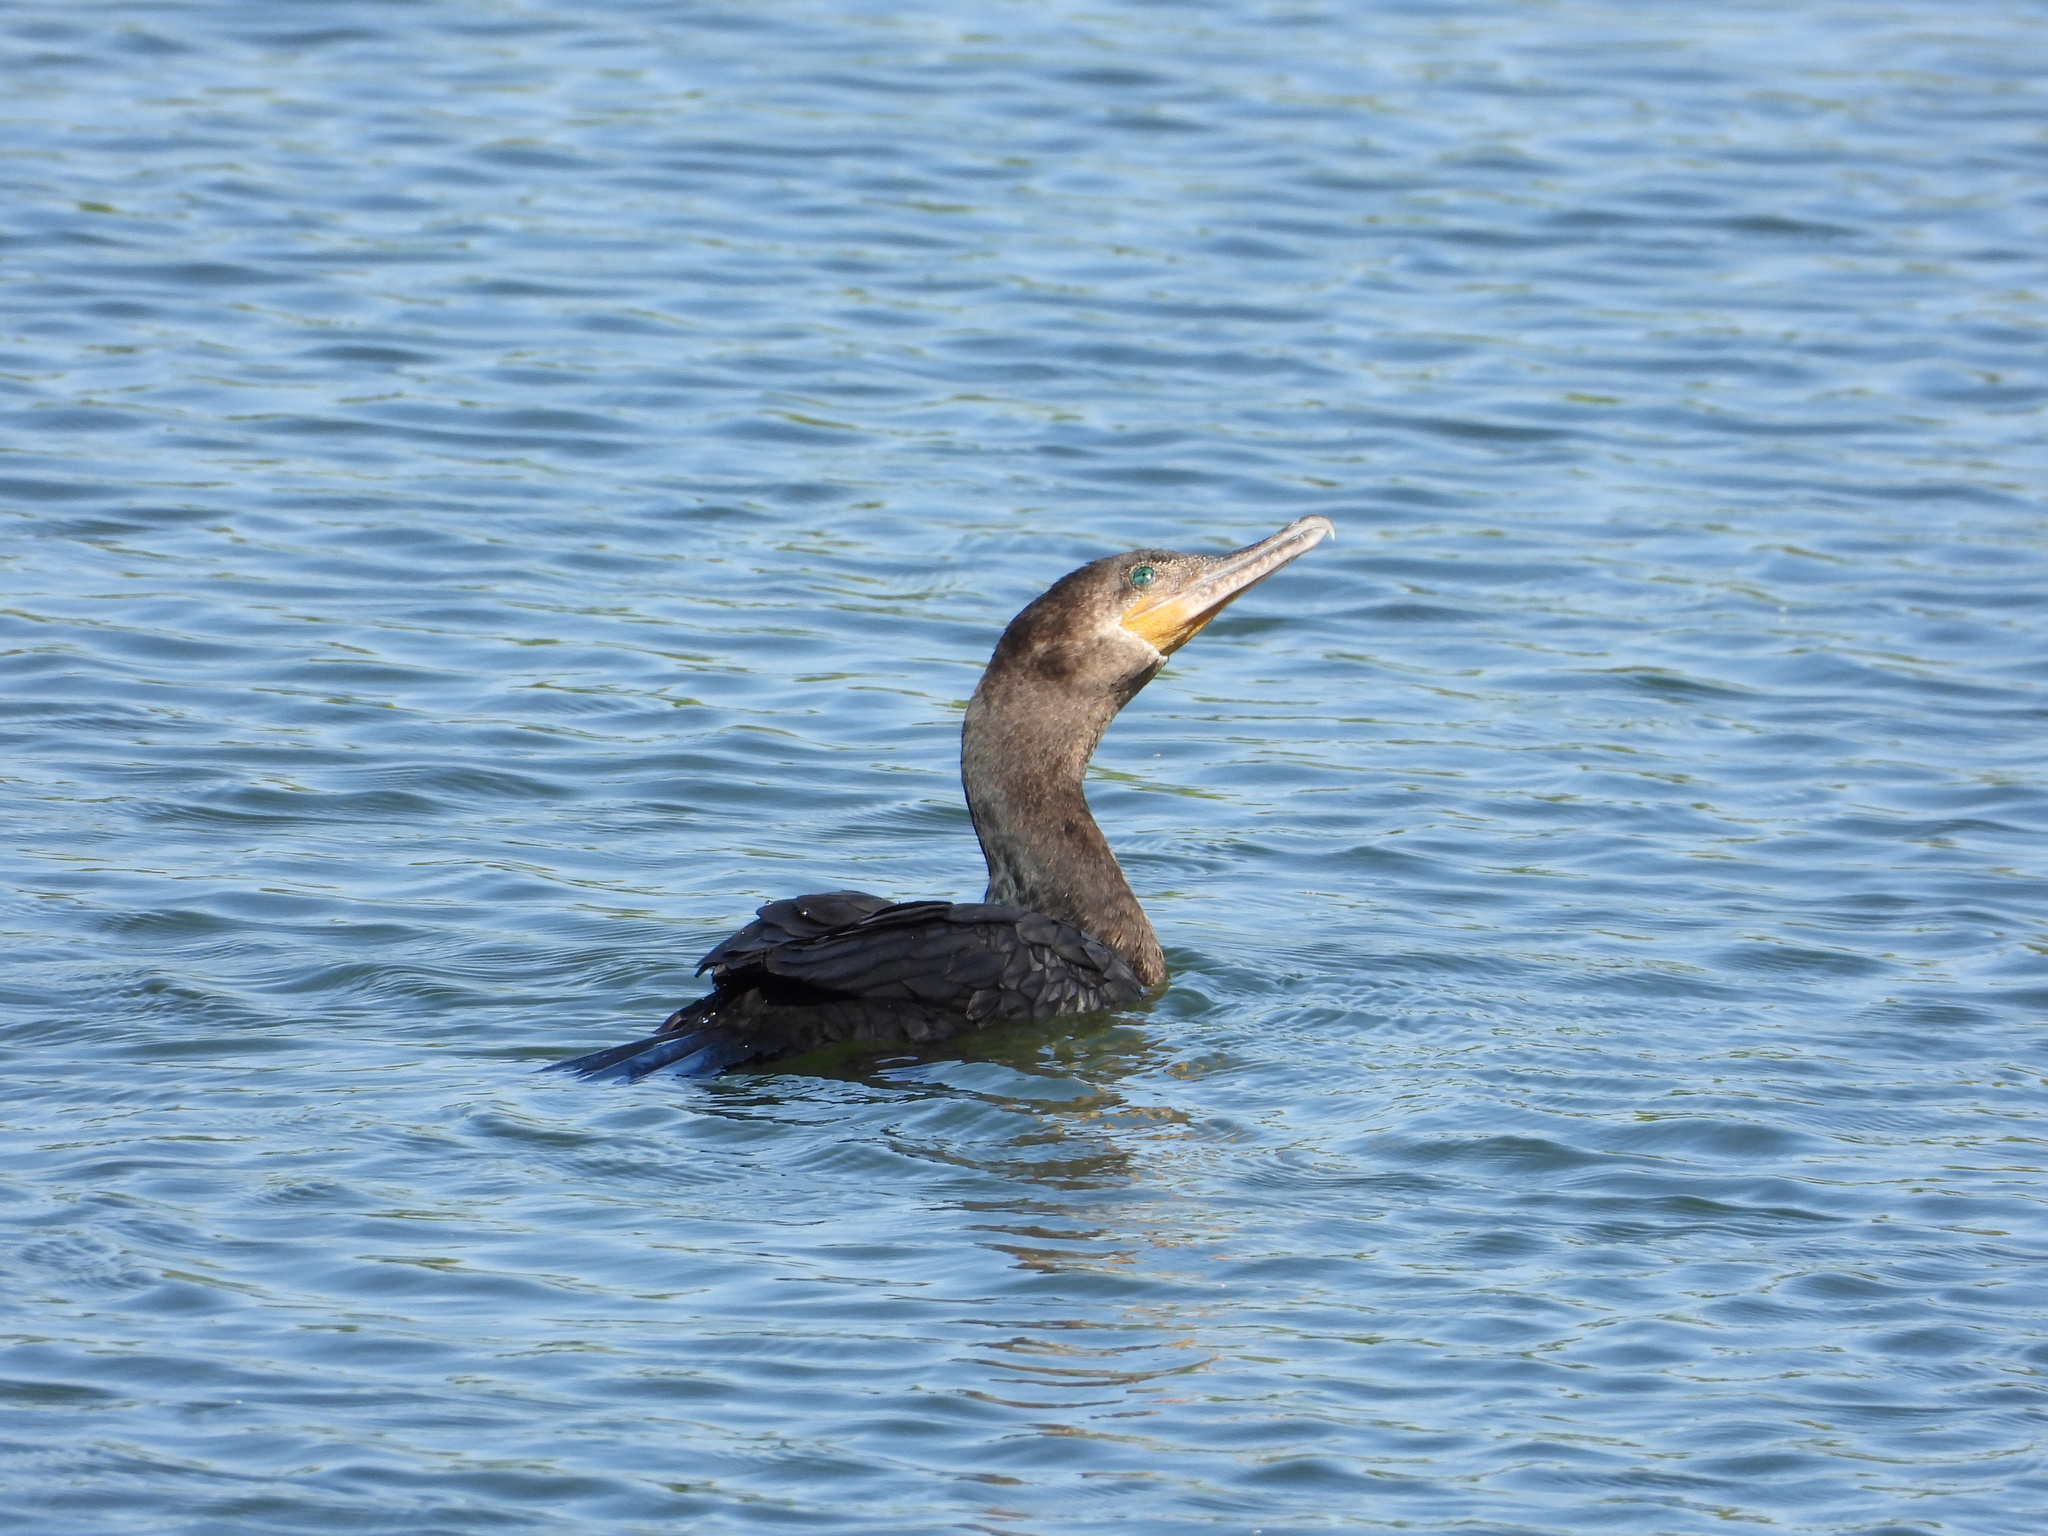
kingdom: Animalia
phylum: Chordata
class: Aves
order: Suliformes
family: Phalacrocoracidae
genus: Phalacrocorax
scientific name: Phalacrocorax brasilianus
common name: Neotropic cormorant
